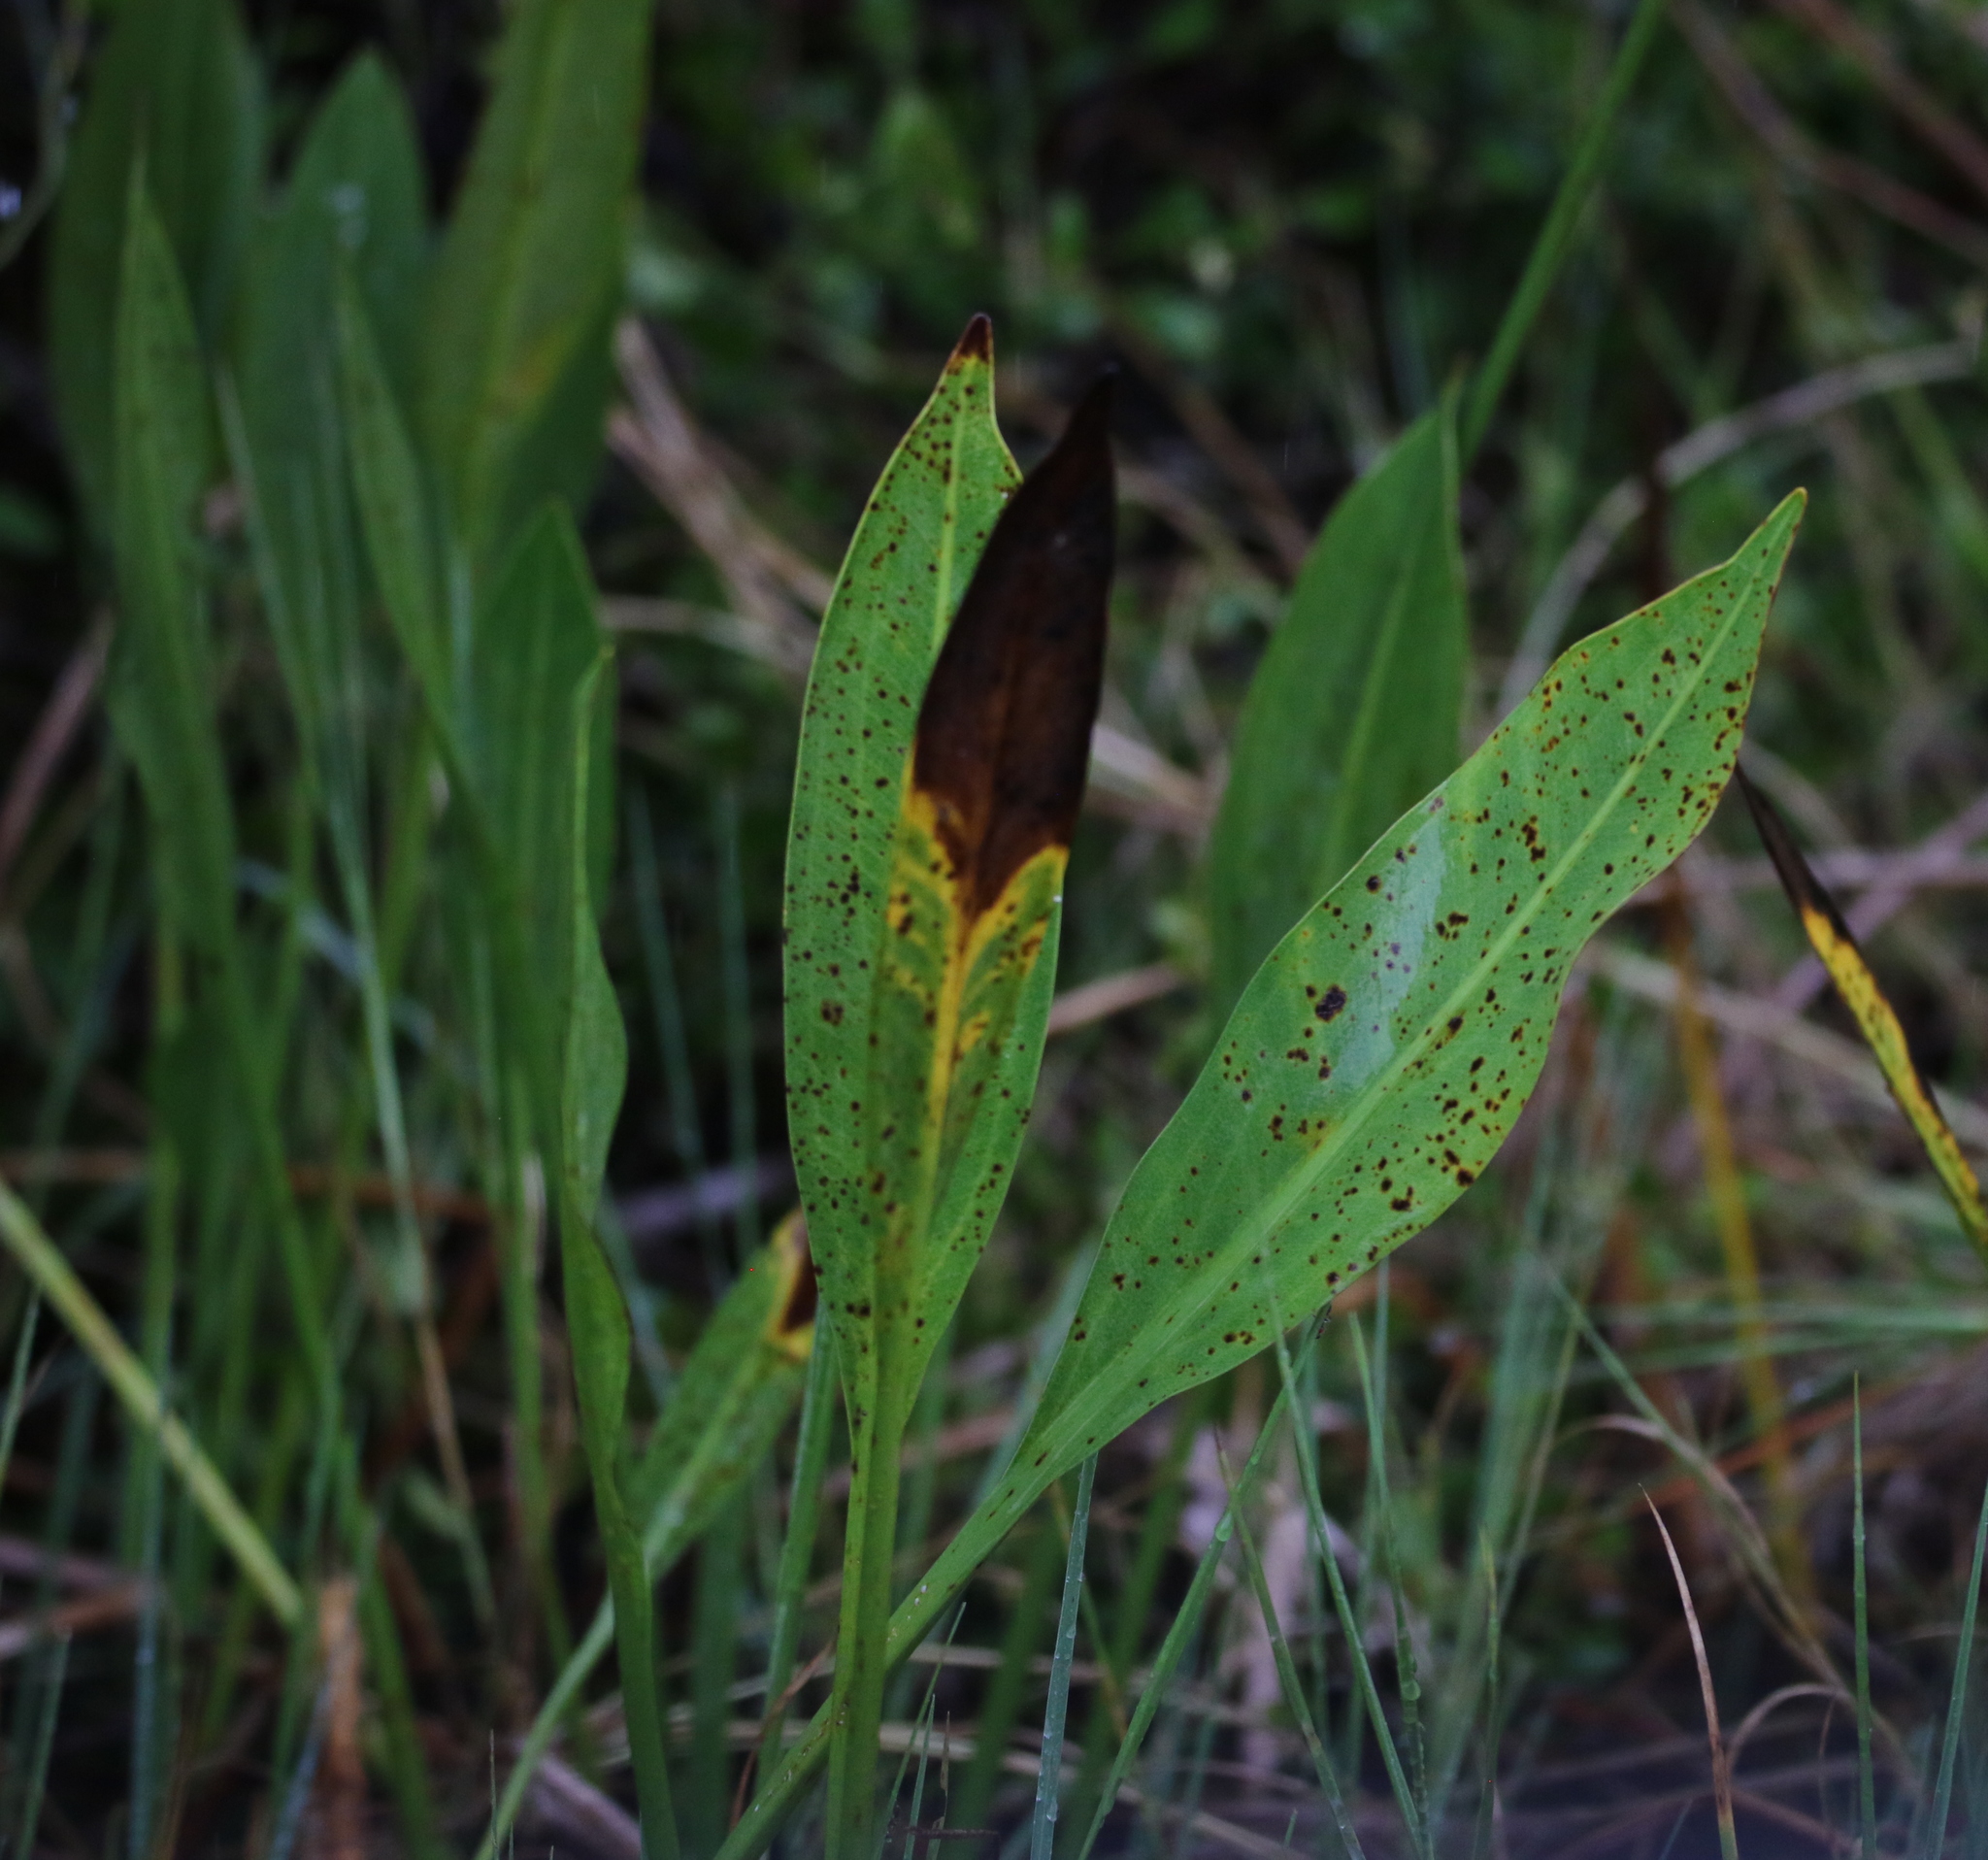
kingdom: Plantae
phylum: Tracheophyta
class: Liliopsida
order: Alismatales
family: Alismataceae
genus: Sagittaria
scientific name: Sagittaria lancifolia
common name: Lance-leaf arrowhead
